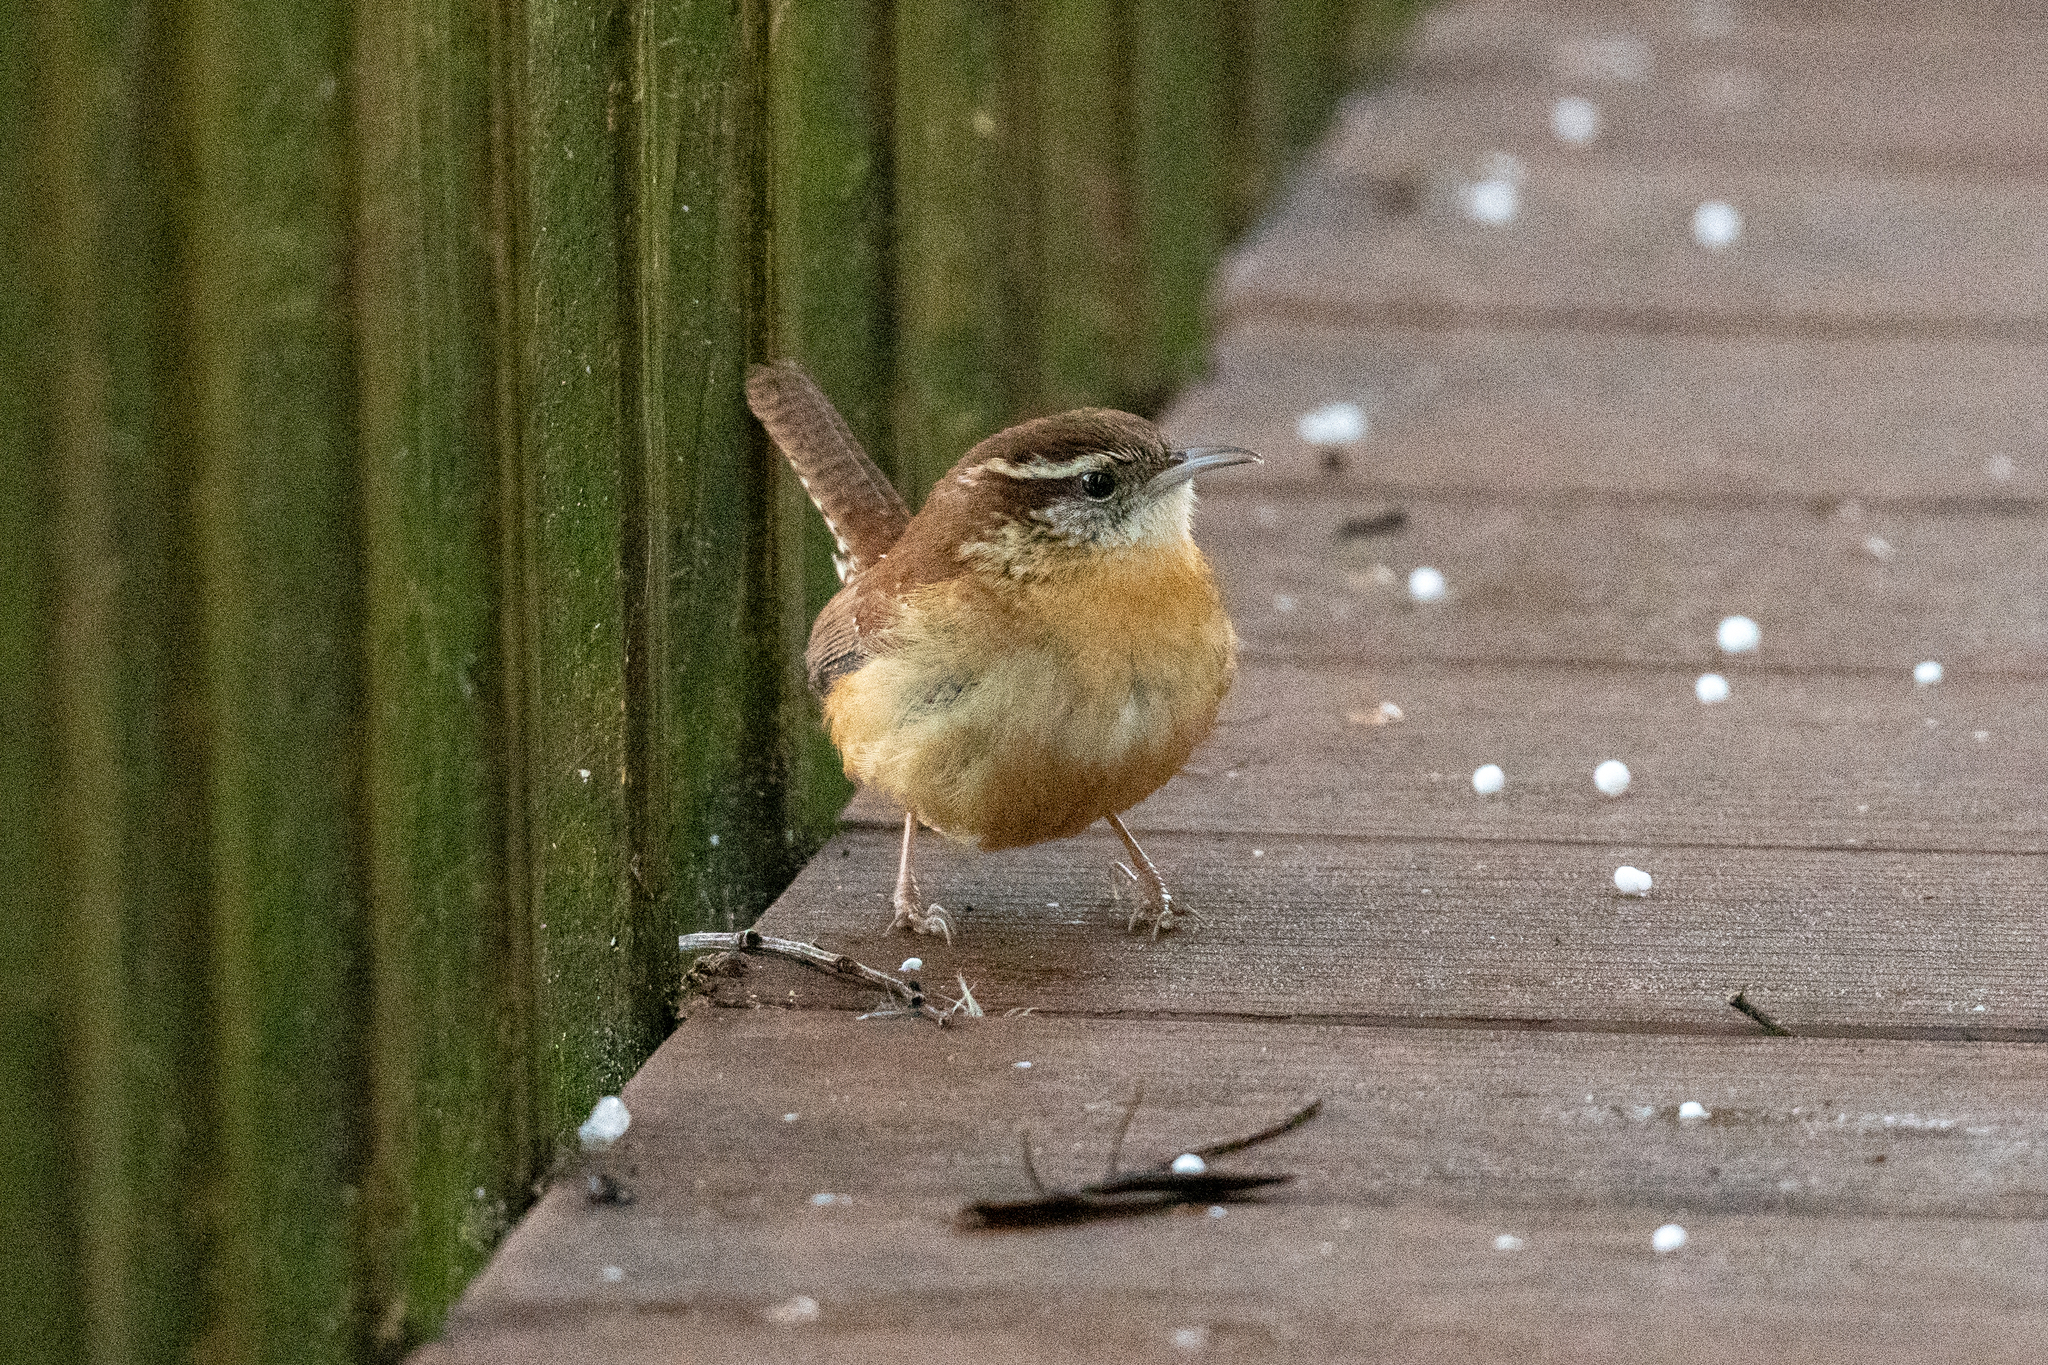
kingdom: Animalia
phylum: Chordata
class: Aves
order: Passeriformes
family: Troglodytidae
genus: Thryothorus
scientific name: Thryothorus ludovicianus
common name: Carolina wren
